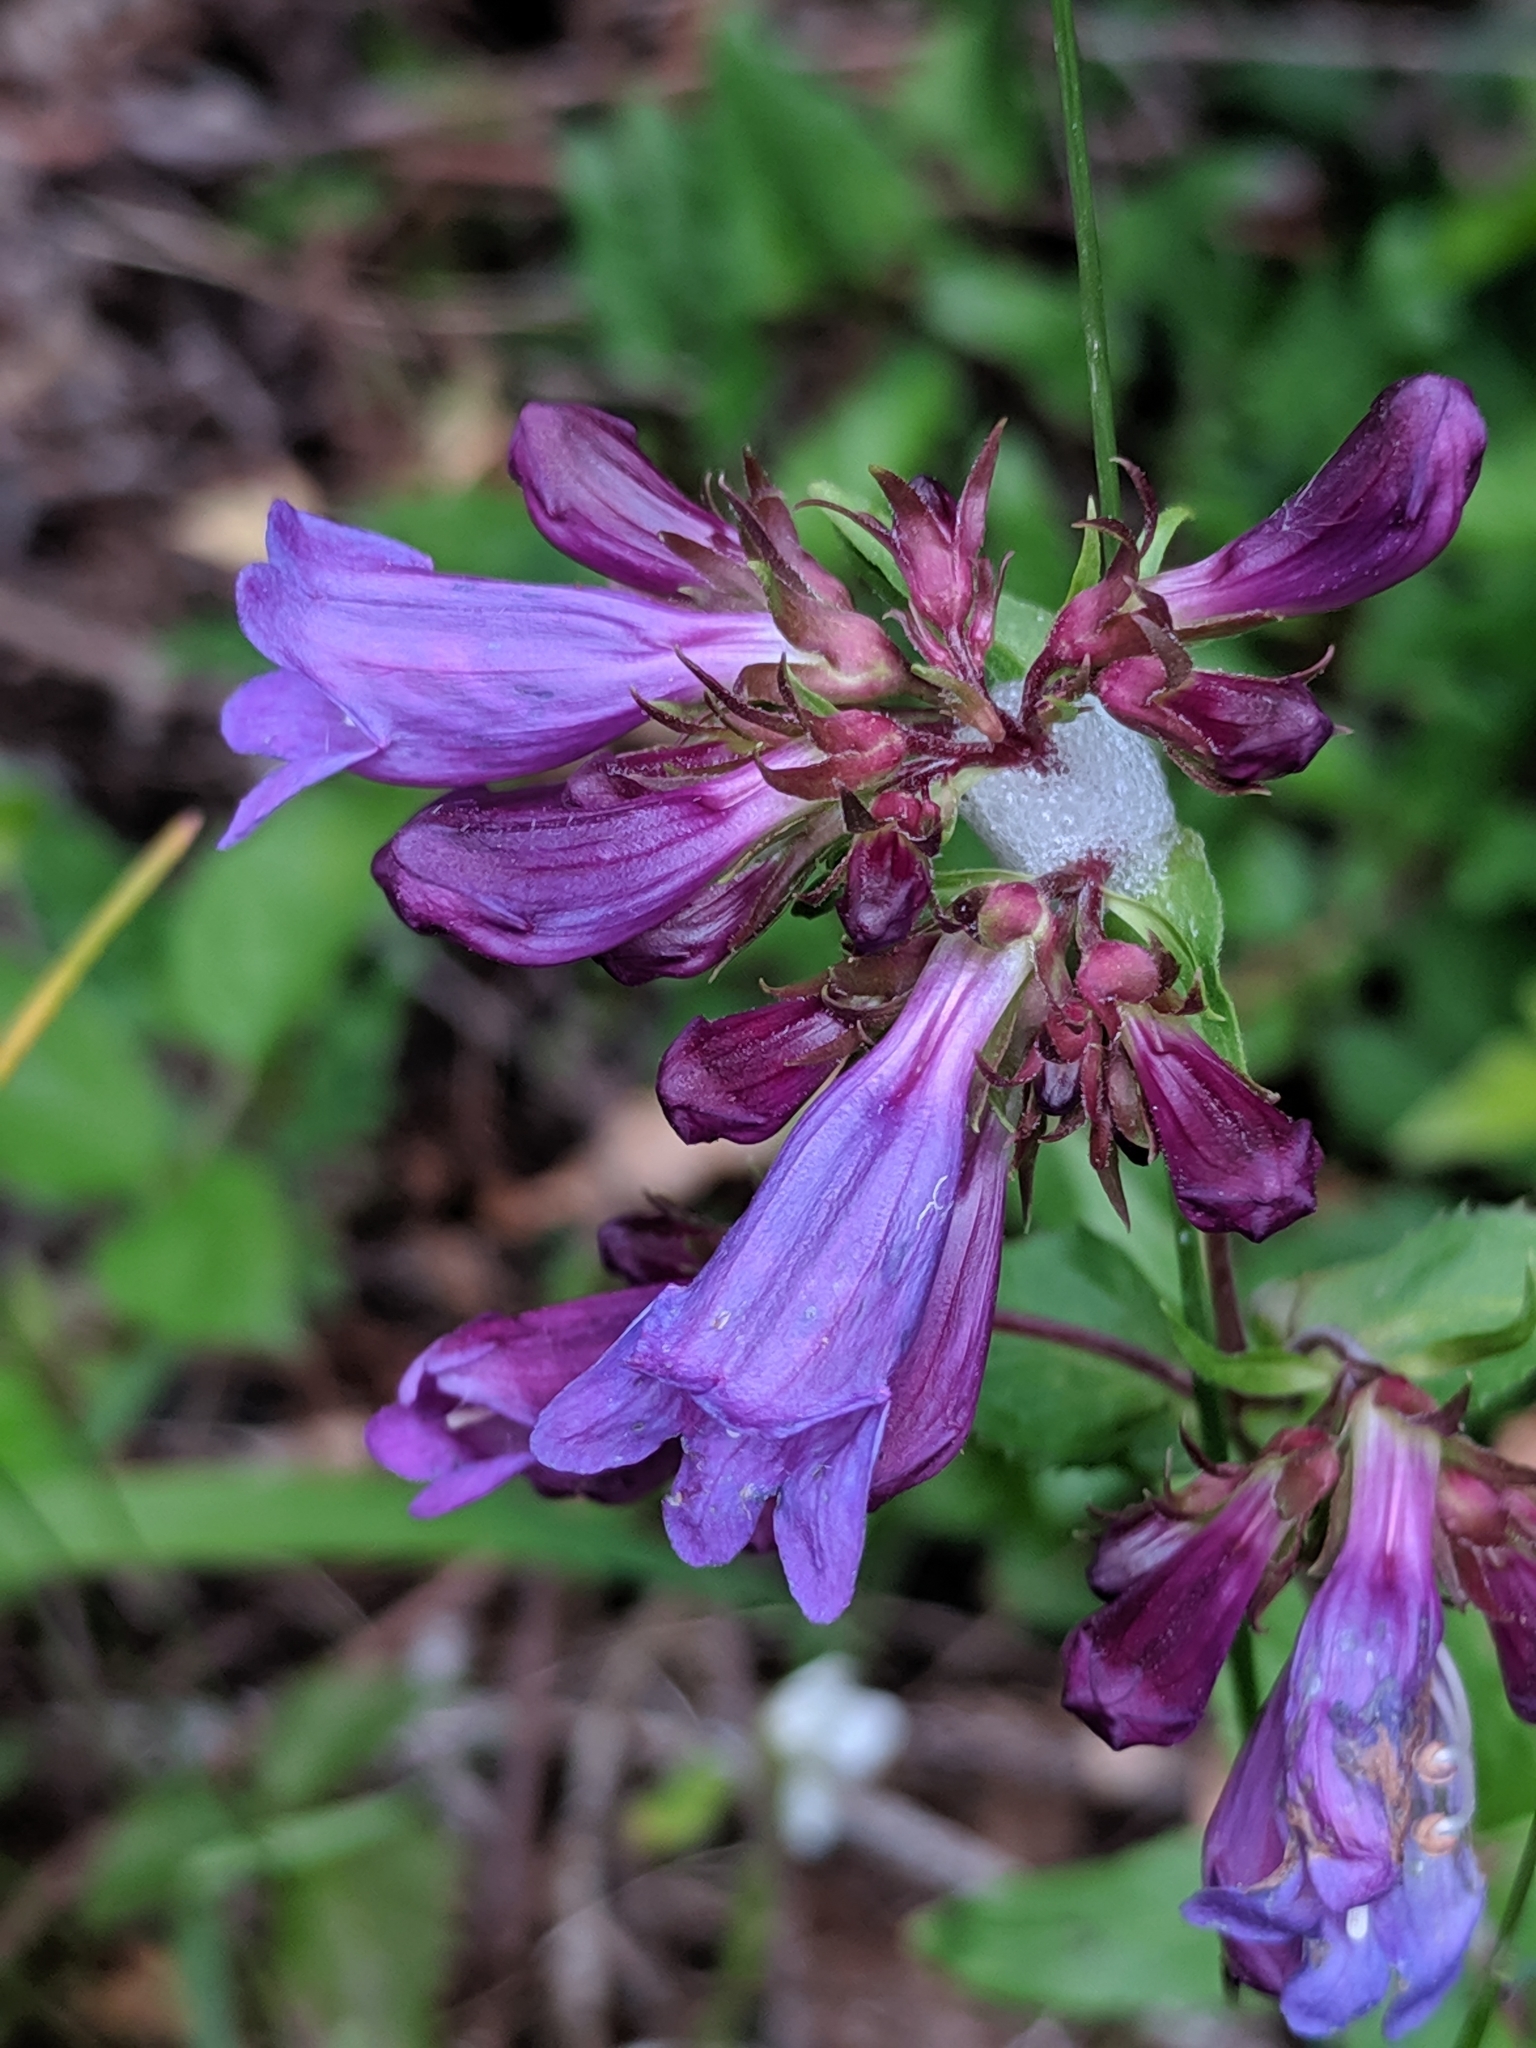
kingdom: Plantae
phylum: Tracheophyta
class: Magnoliopsida
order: Lamiales
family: Plantaginaceae
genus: Penstemon
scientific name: Penstemon serrulatus
